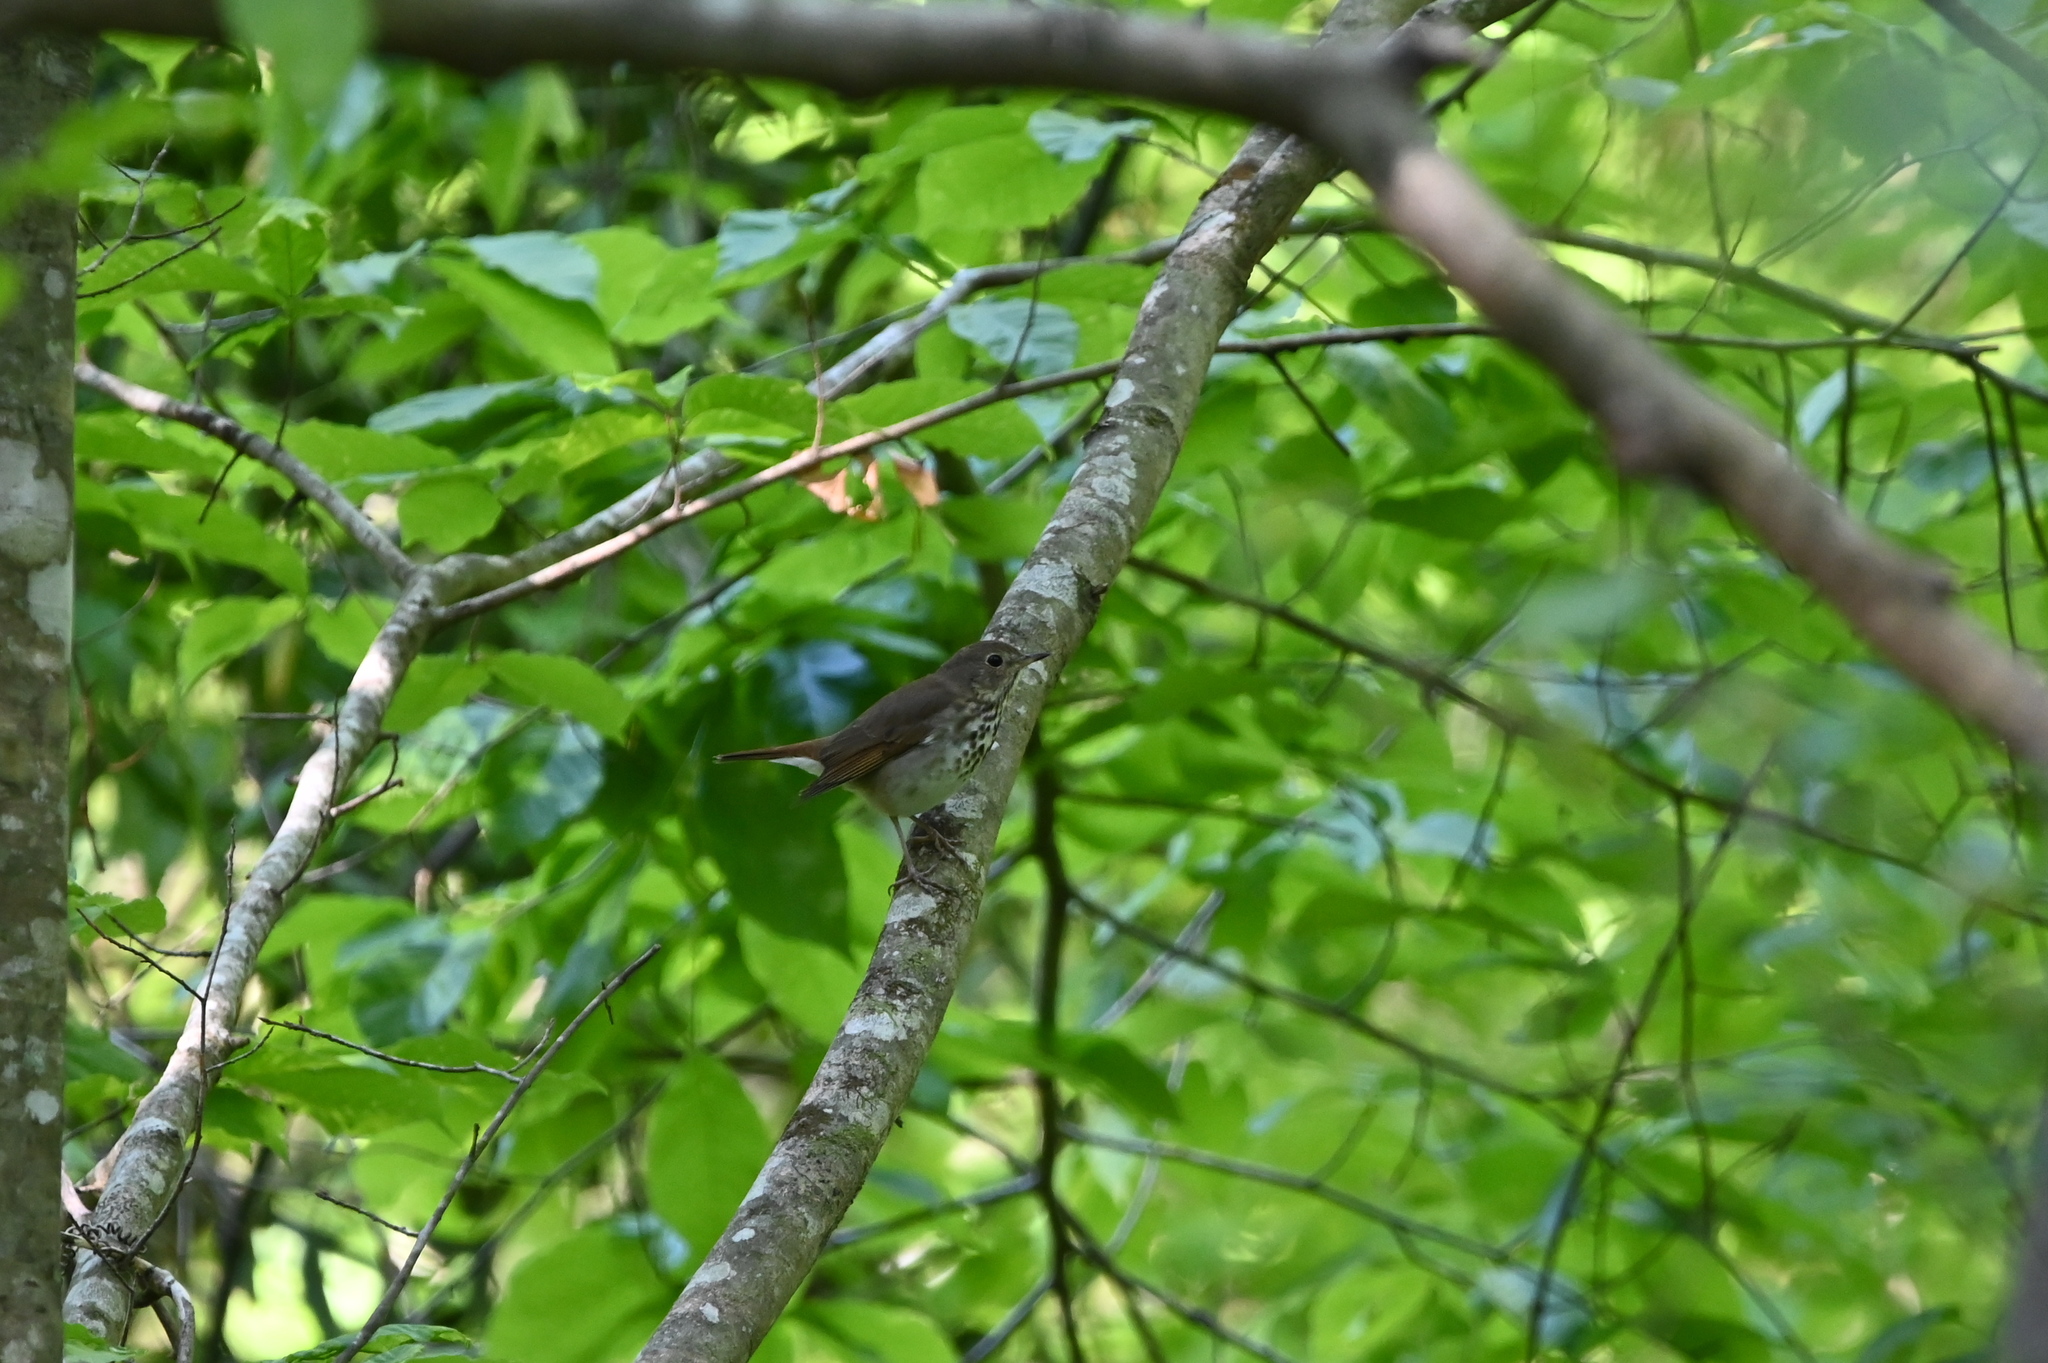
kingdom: Animalia
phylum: Chordata
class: Aves
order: Passeriformes
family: Turdidae
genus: Catharus
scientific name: Catharus guttatus
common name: Hermit thrush
